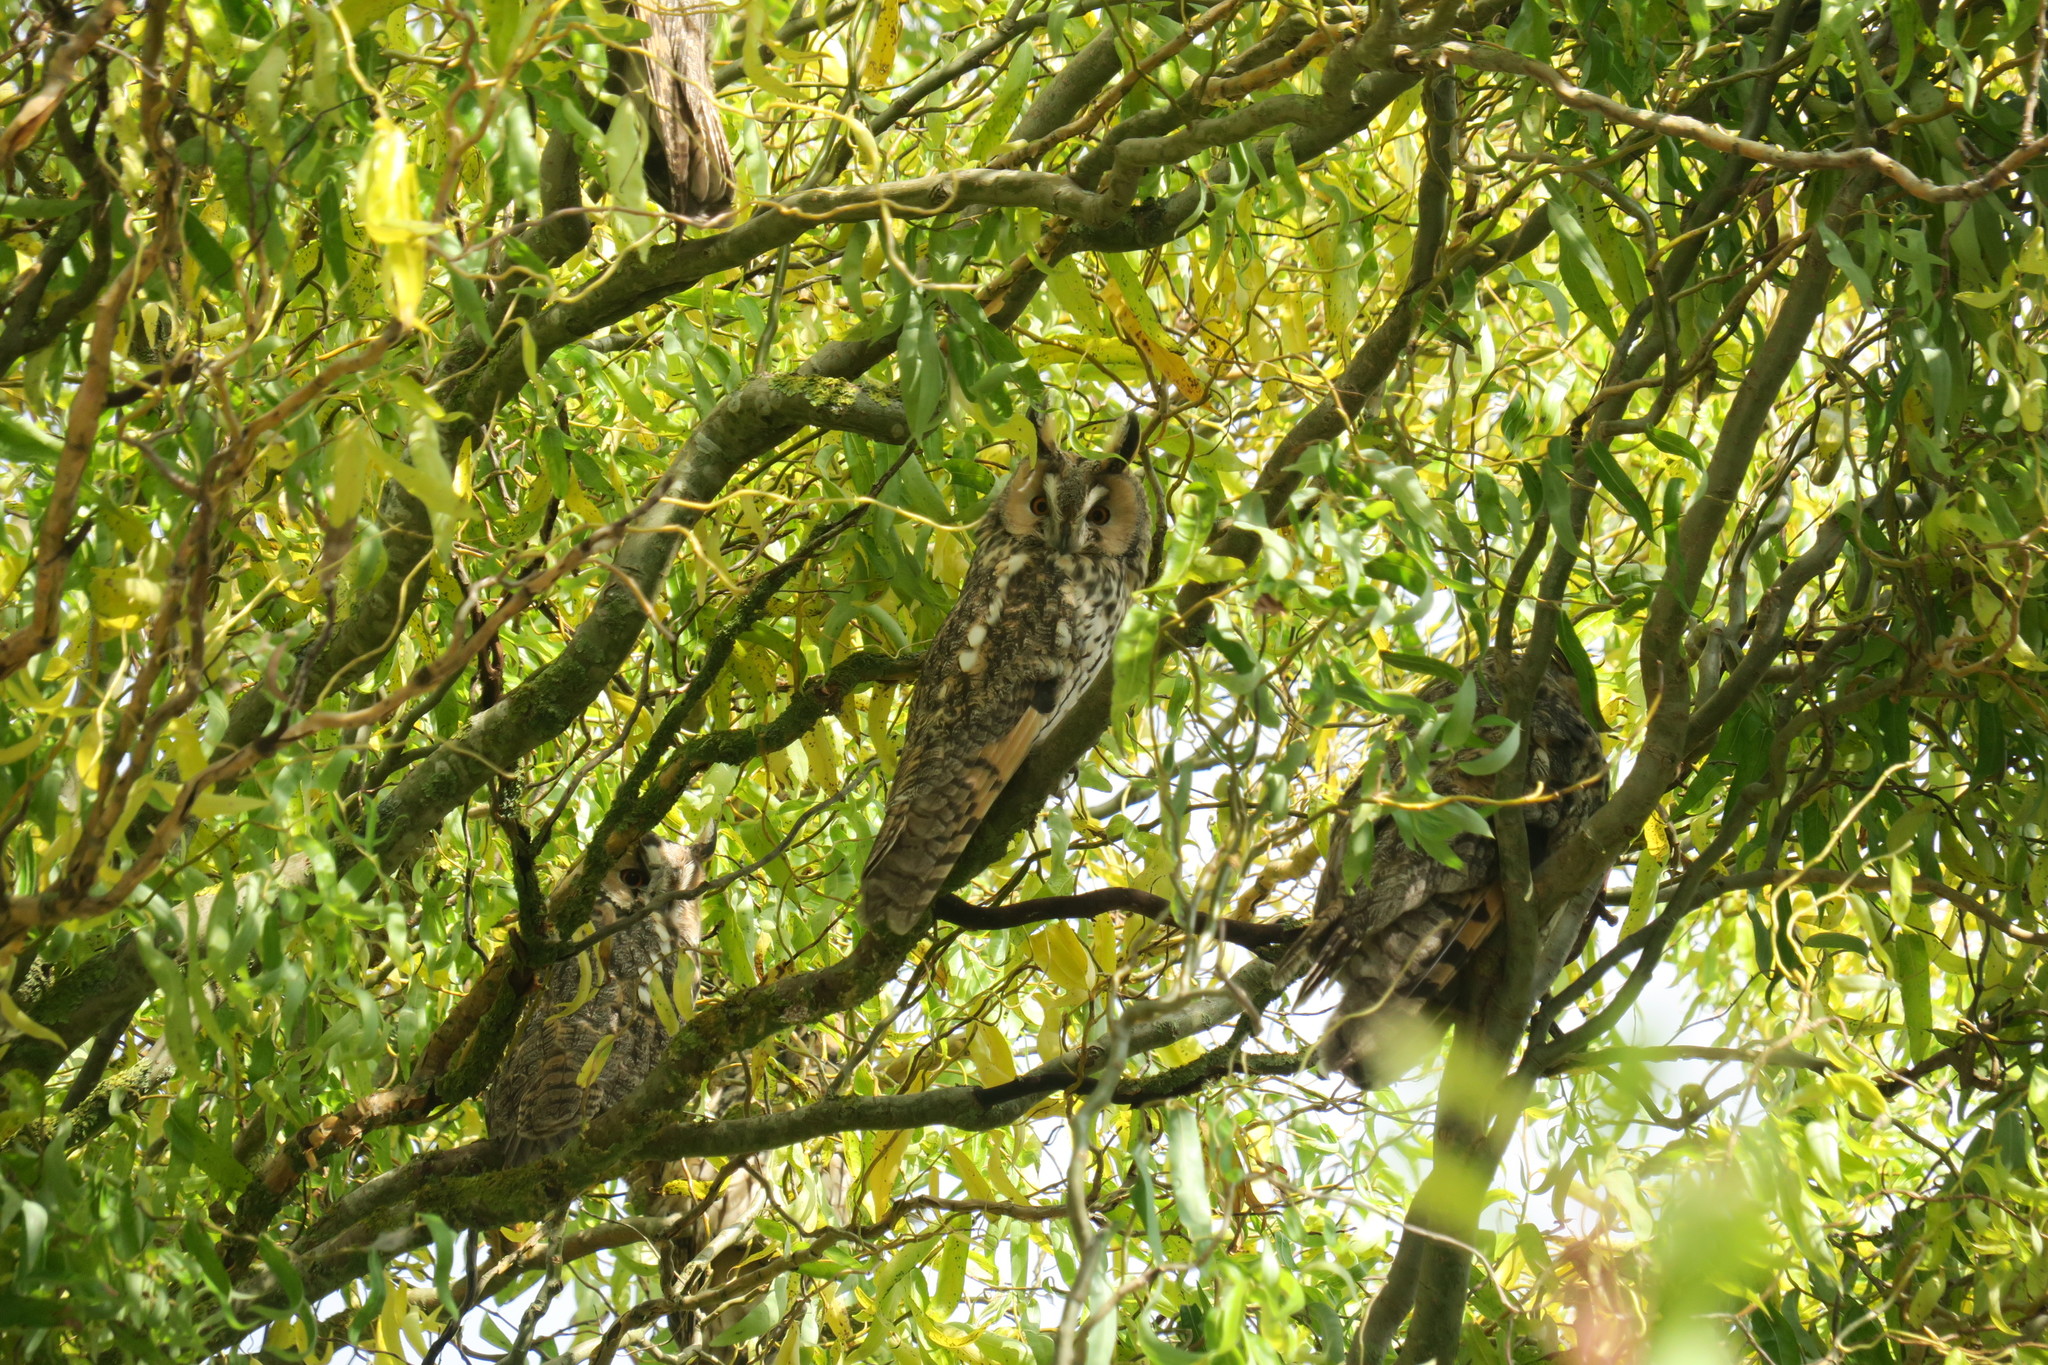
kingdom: Animalia
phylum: Chordata
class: Aves
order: Strigiformes
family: Strigidae
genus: Asio
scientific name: Asio otus
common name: Long-eared owl
